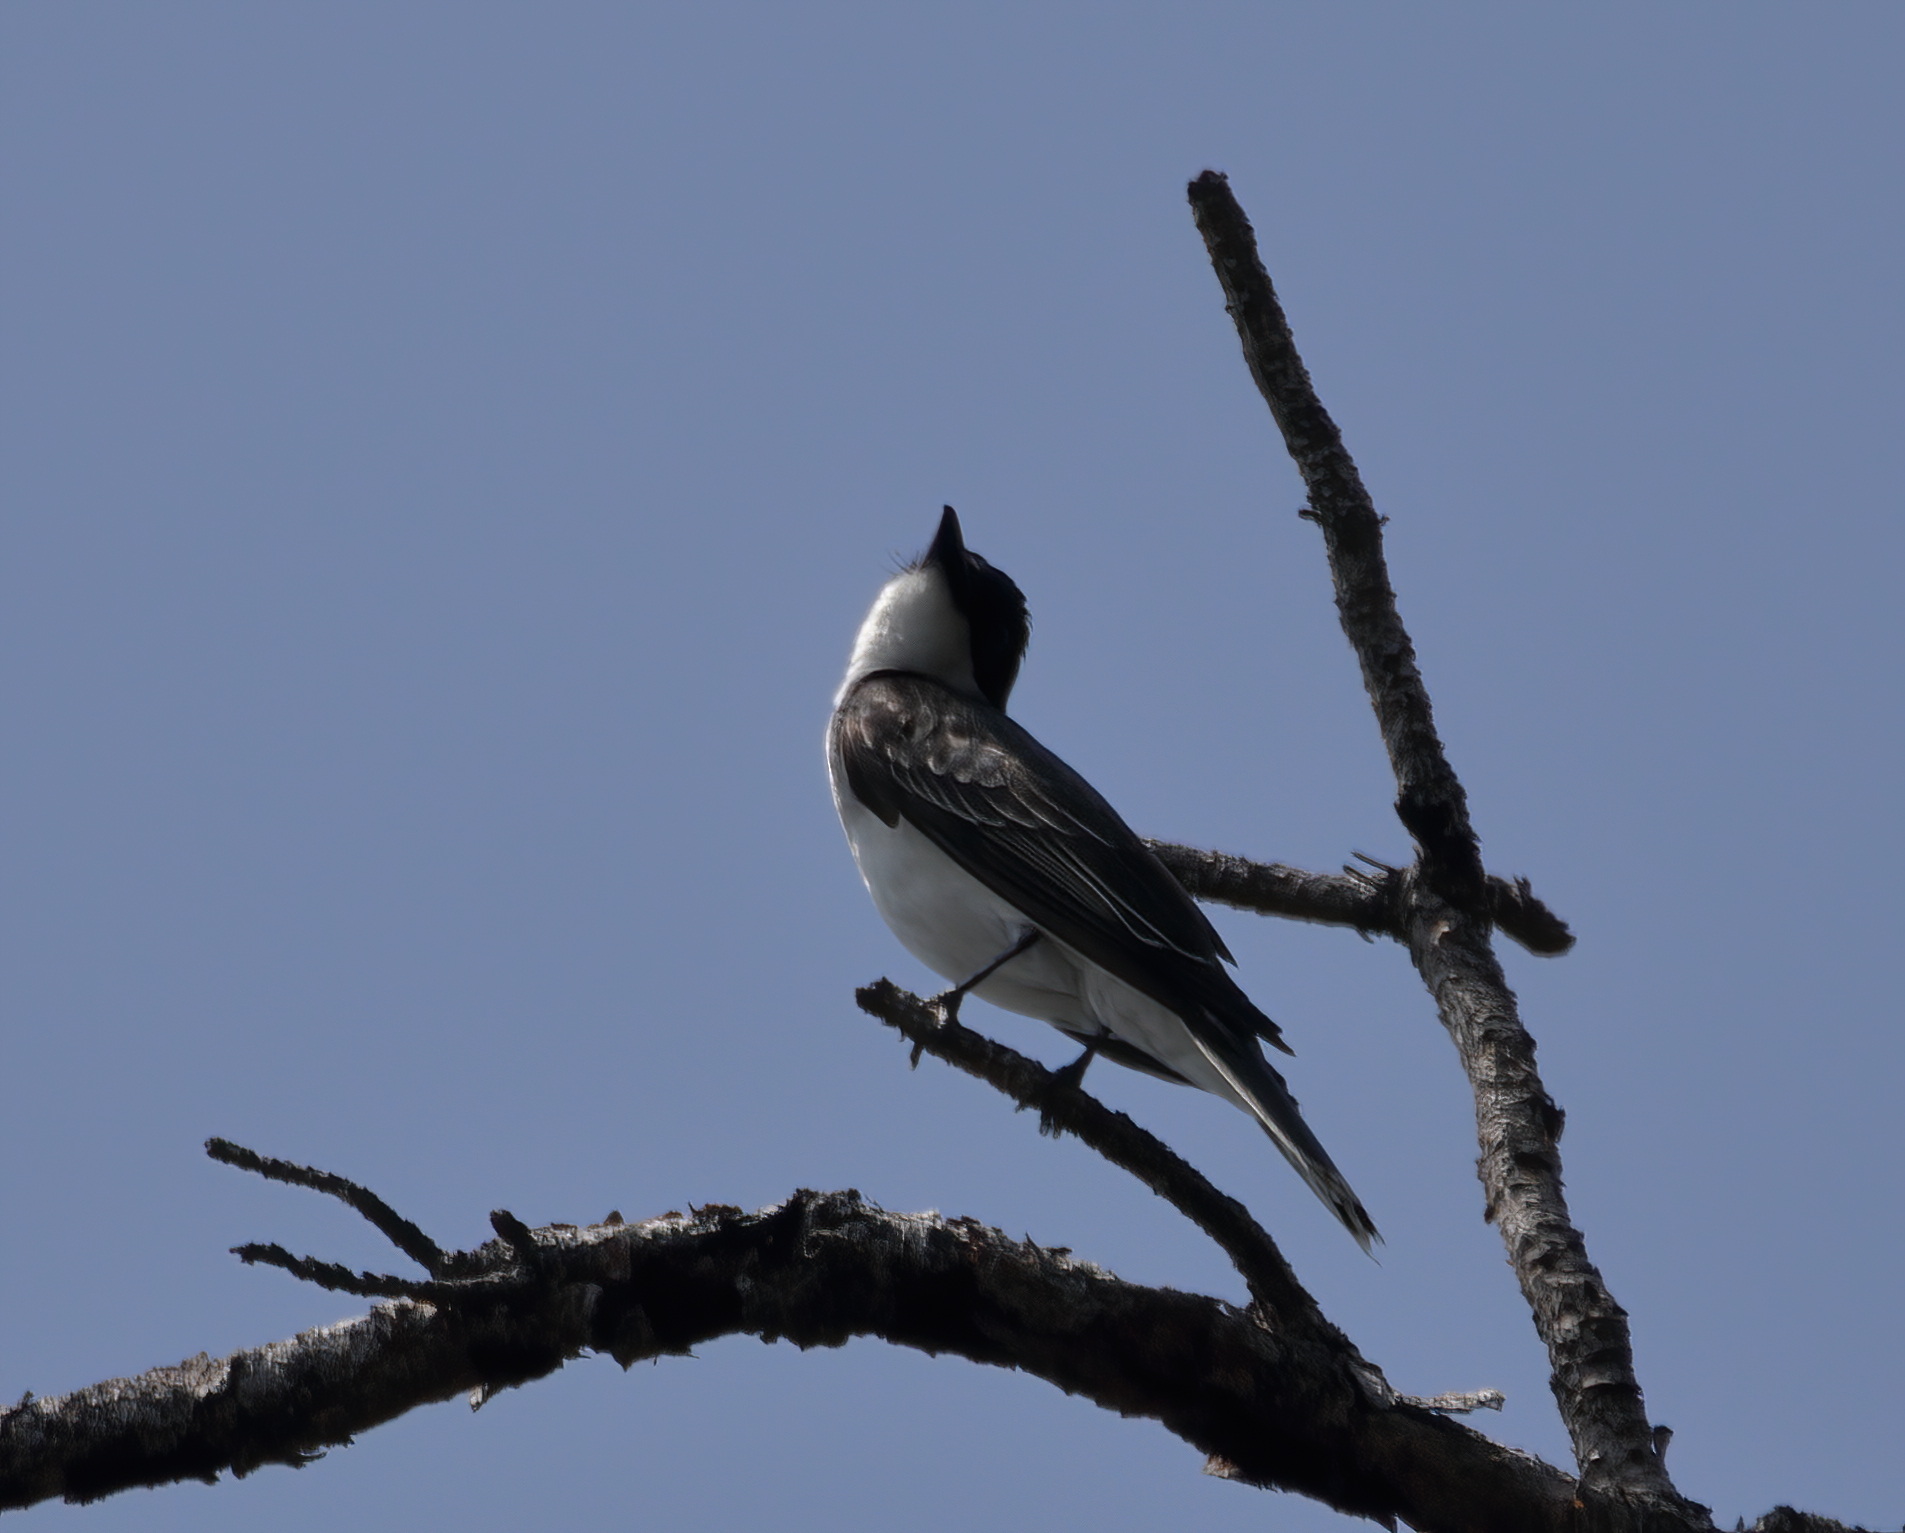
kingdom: Animalia
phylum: Chordata
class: Aves
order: Passeriformes
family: Tyrannidae
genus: Tyrannus
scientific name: Tyrannus tyrannus
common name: Eastern kingbird
